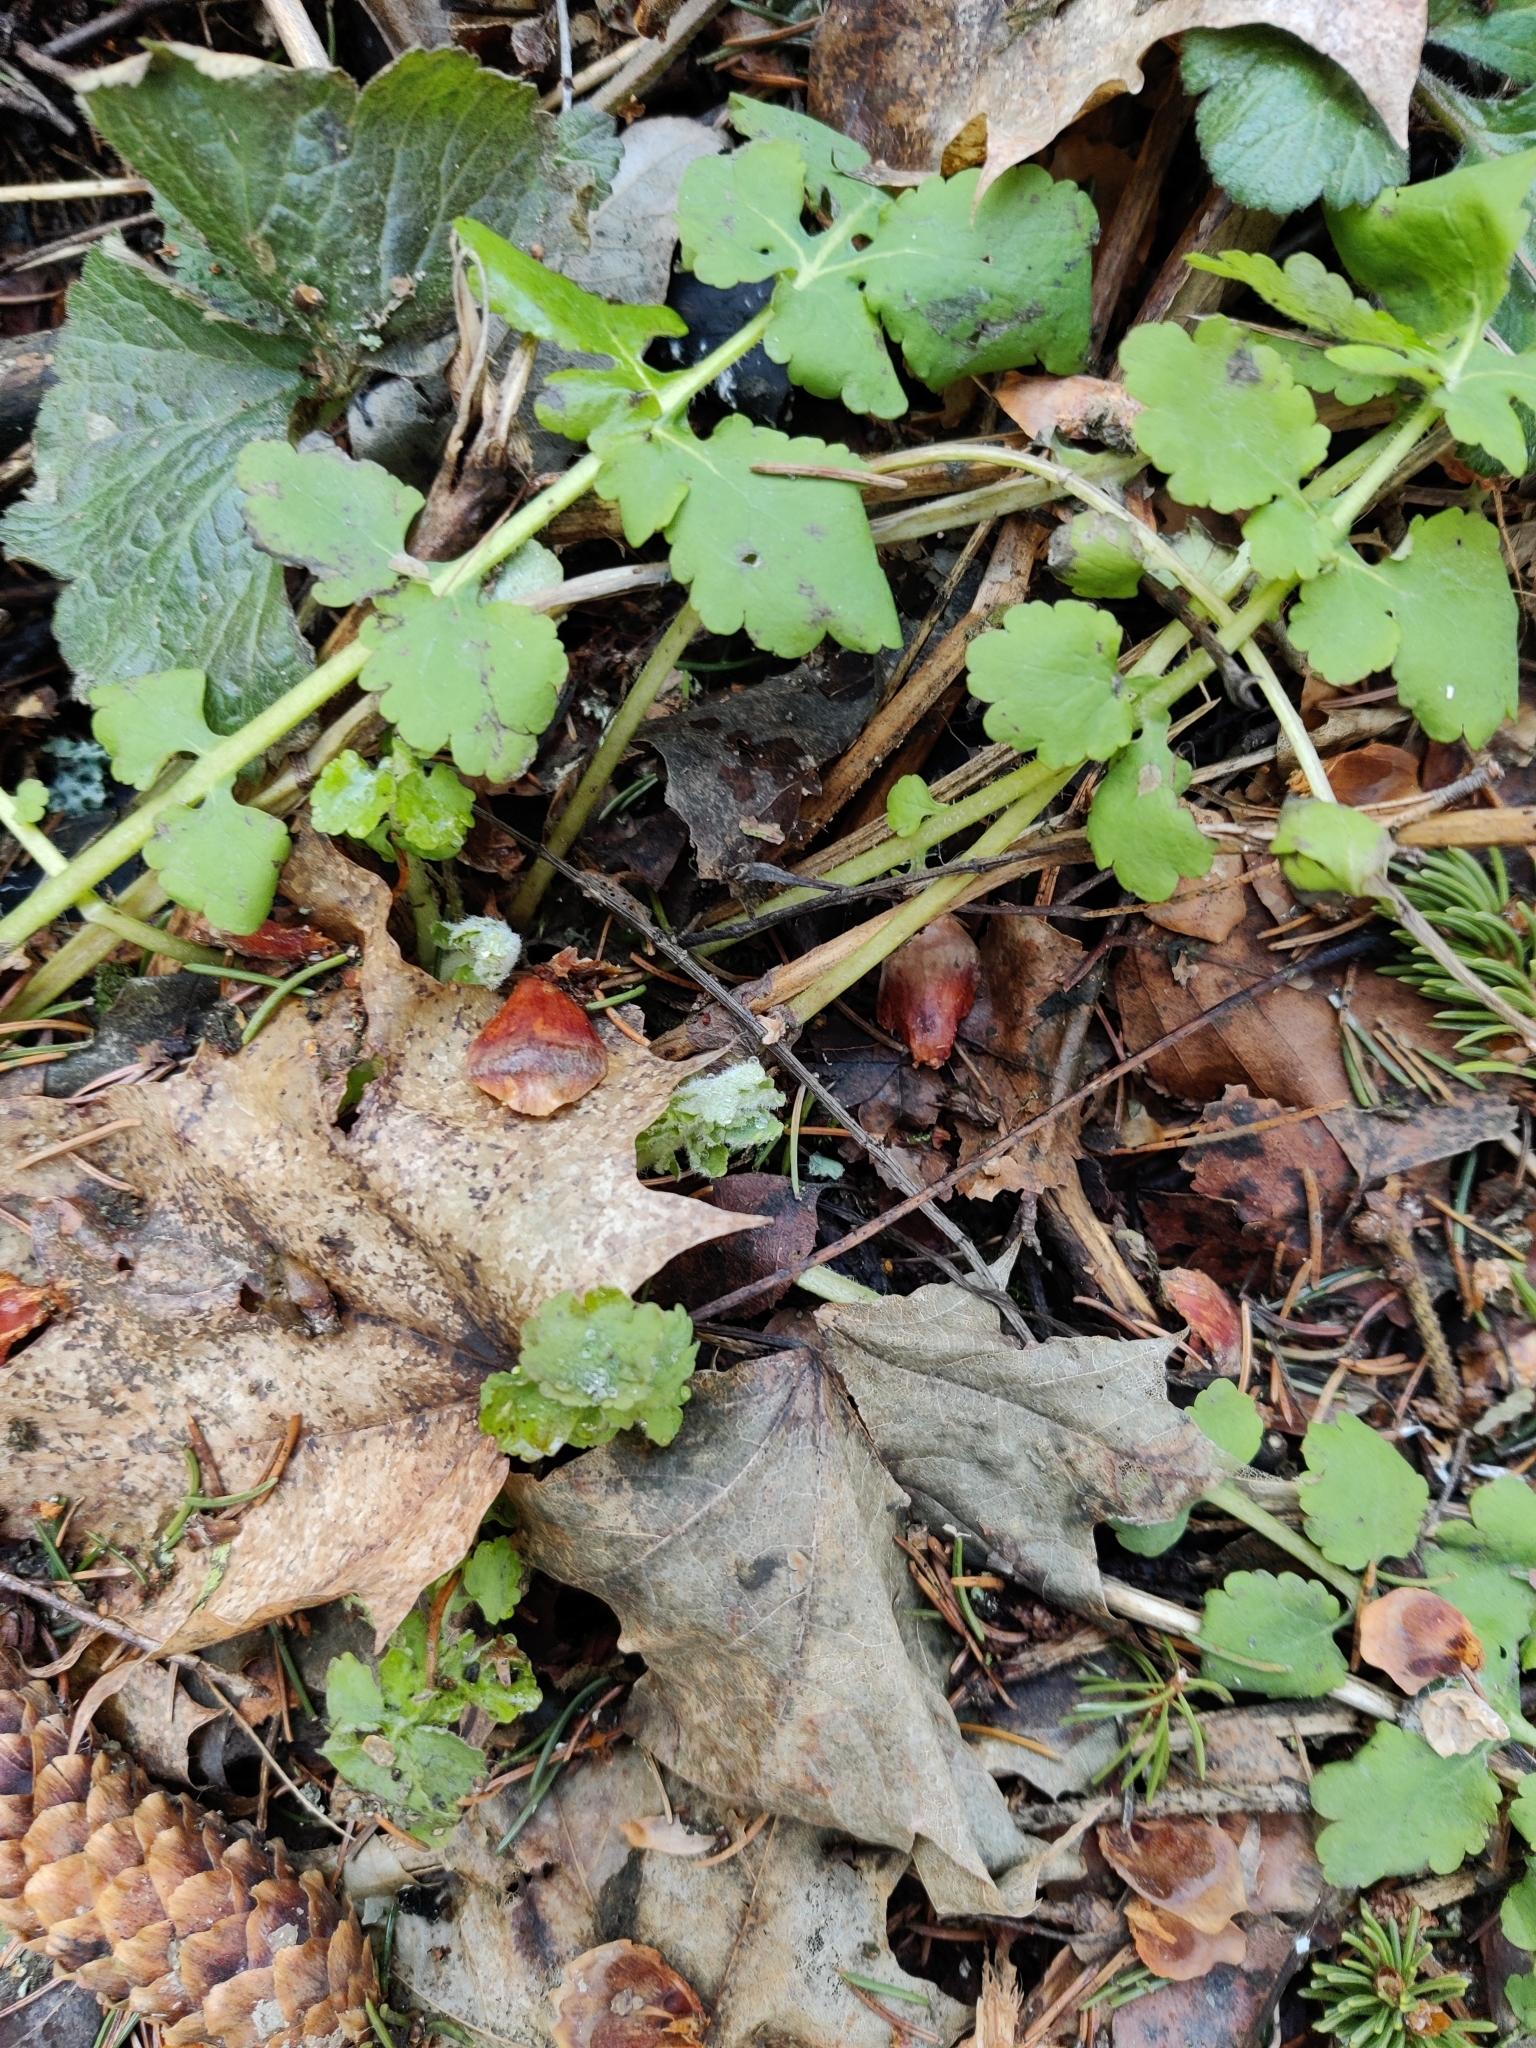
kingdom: Plantae
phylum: Tracheophyta
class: Magnoliopsida
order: Ranunculales
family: Papaveraceae
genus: Chelidonium
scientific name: Chelidonium majus
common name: Greater celandine
